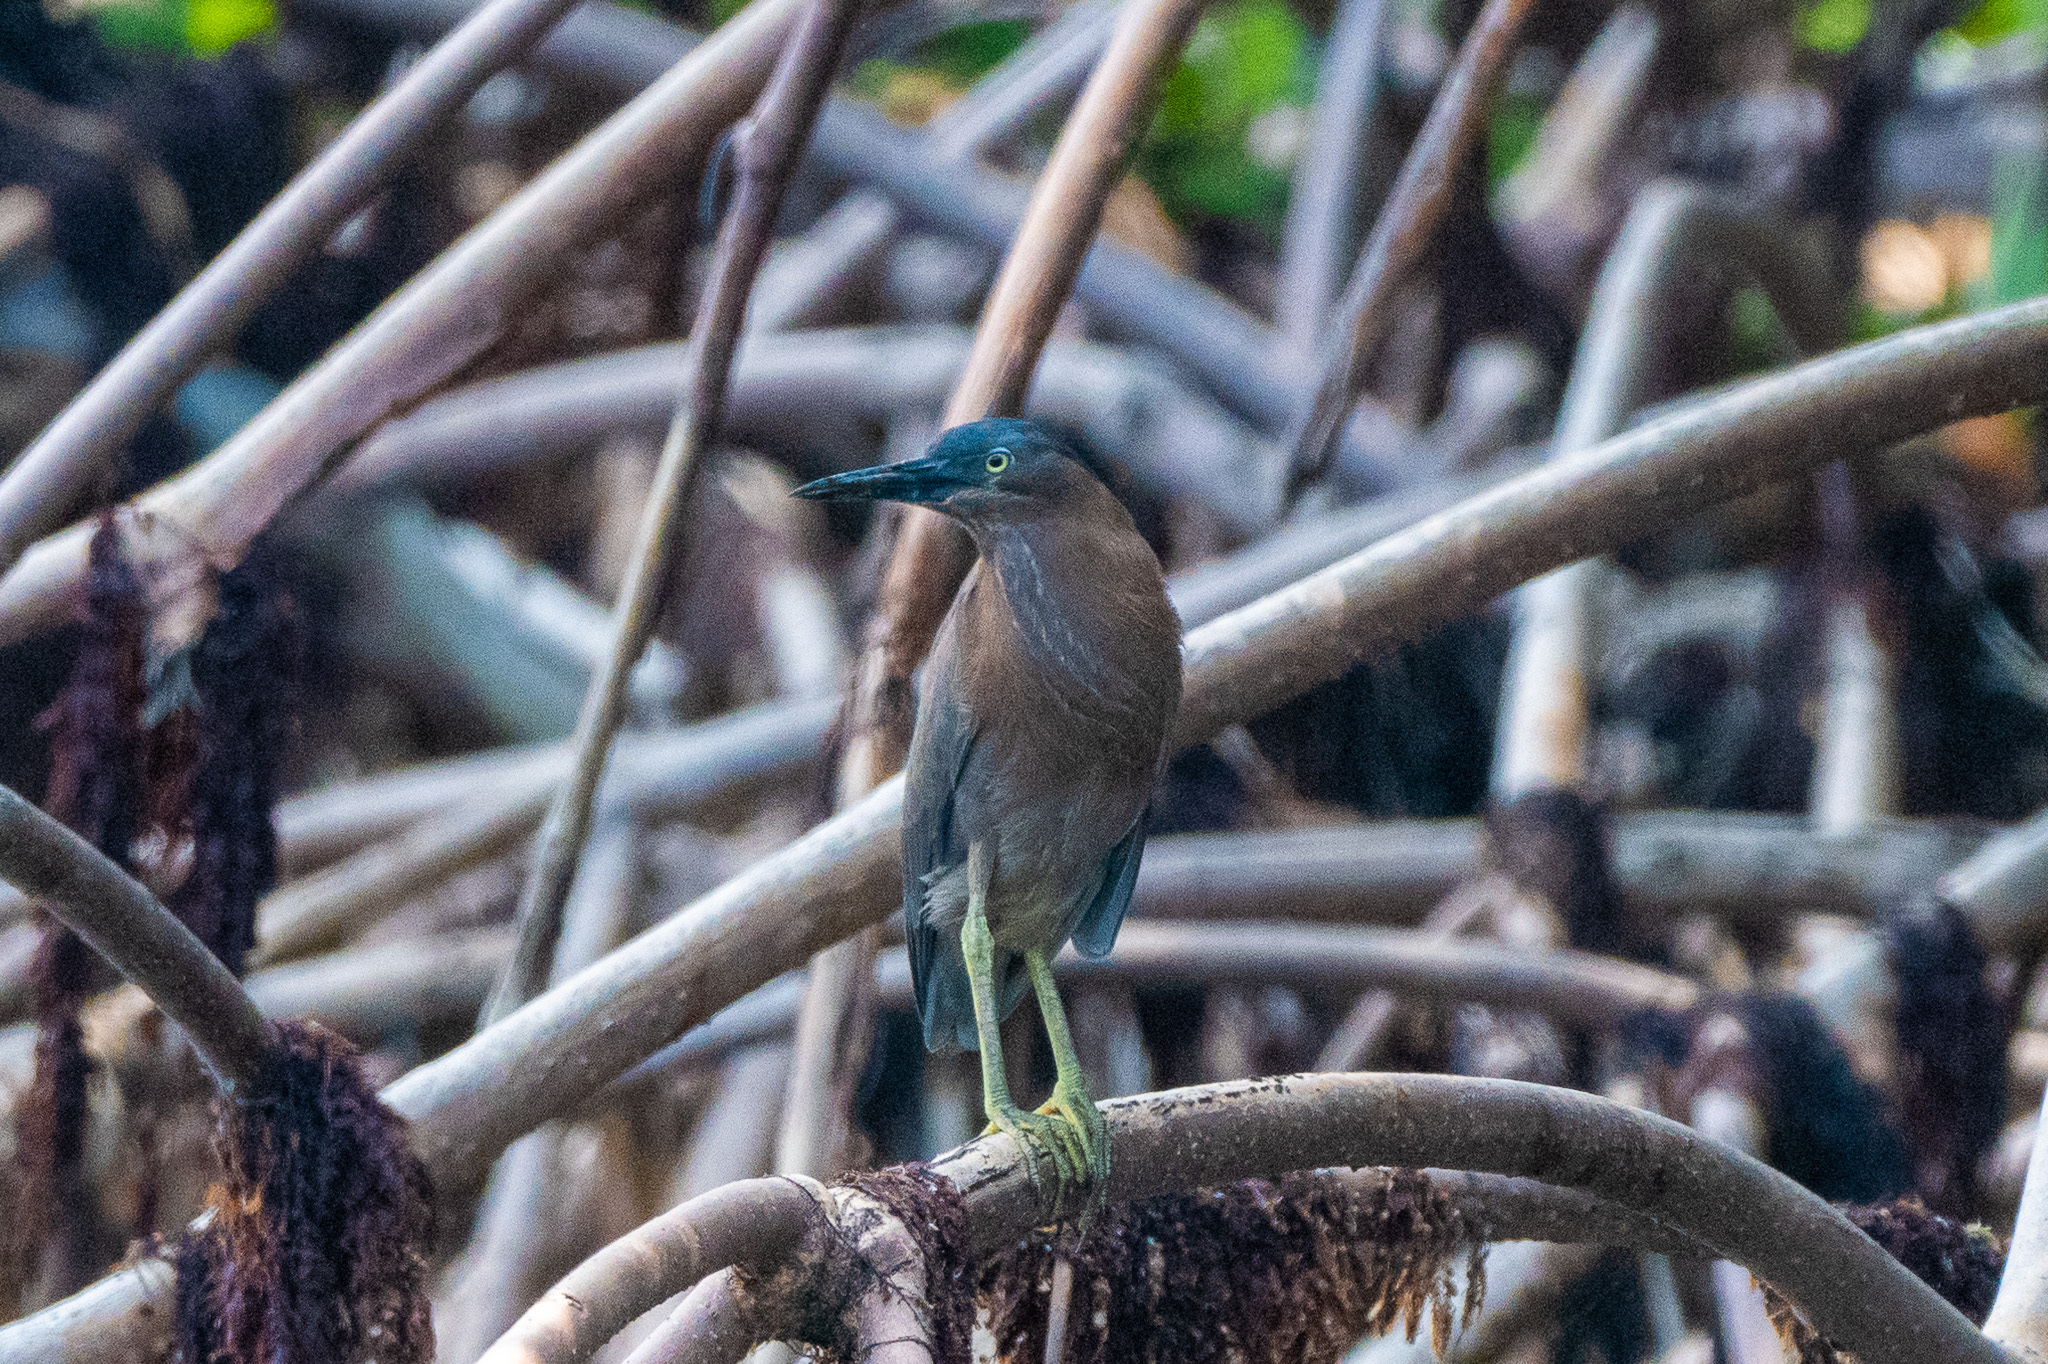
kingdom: Animalia
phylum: Chordata
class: Aves
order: Pelecaniformes
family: Ardeidae
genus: Butorides
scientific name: Butorides virescens
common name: Green heron
